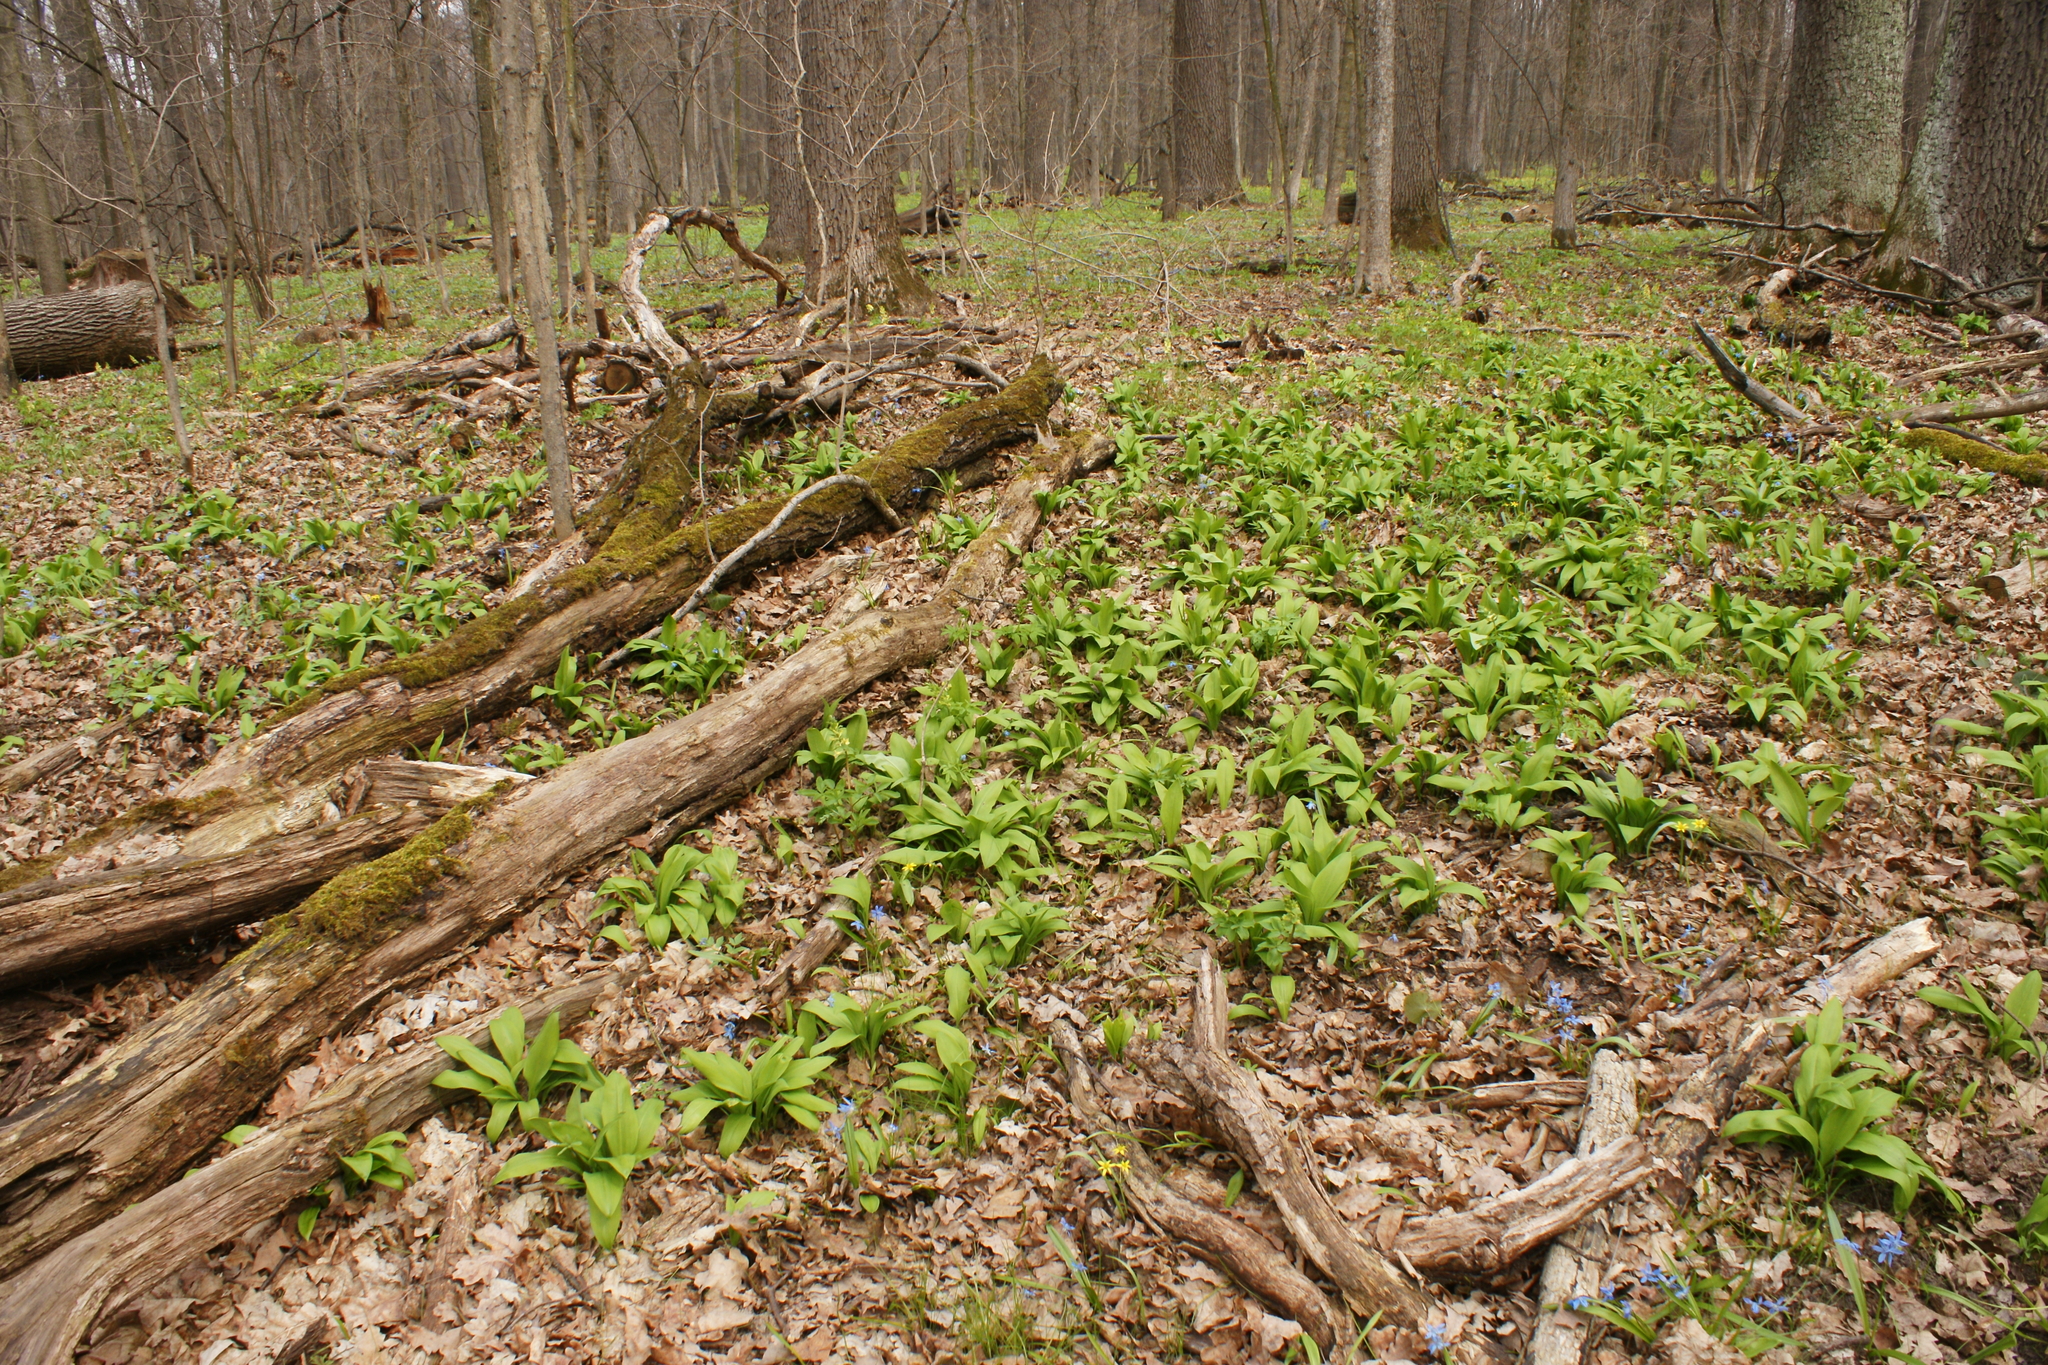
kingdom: Plantae
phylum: Tracheophyta
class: Liliopsida
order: Asparagales
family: Amaryllidaceae
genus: Allium
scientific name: Allium ursinum
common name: Ramsons
